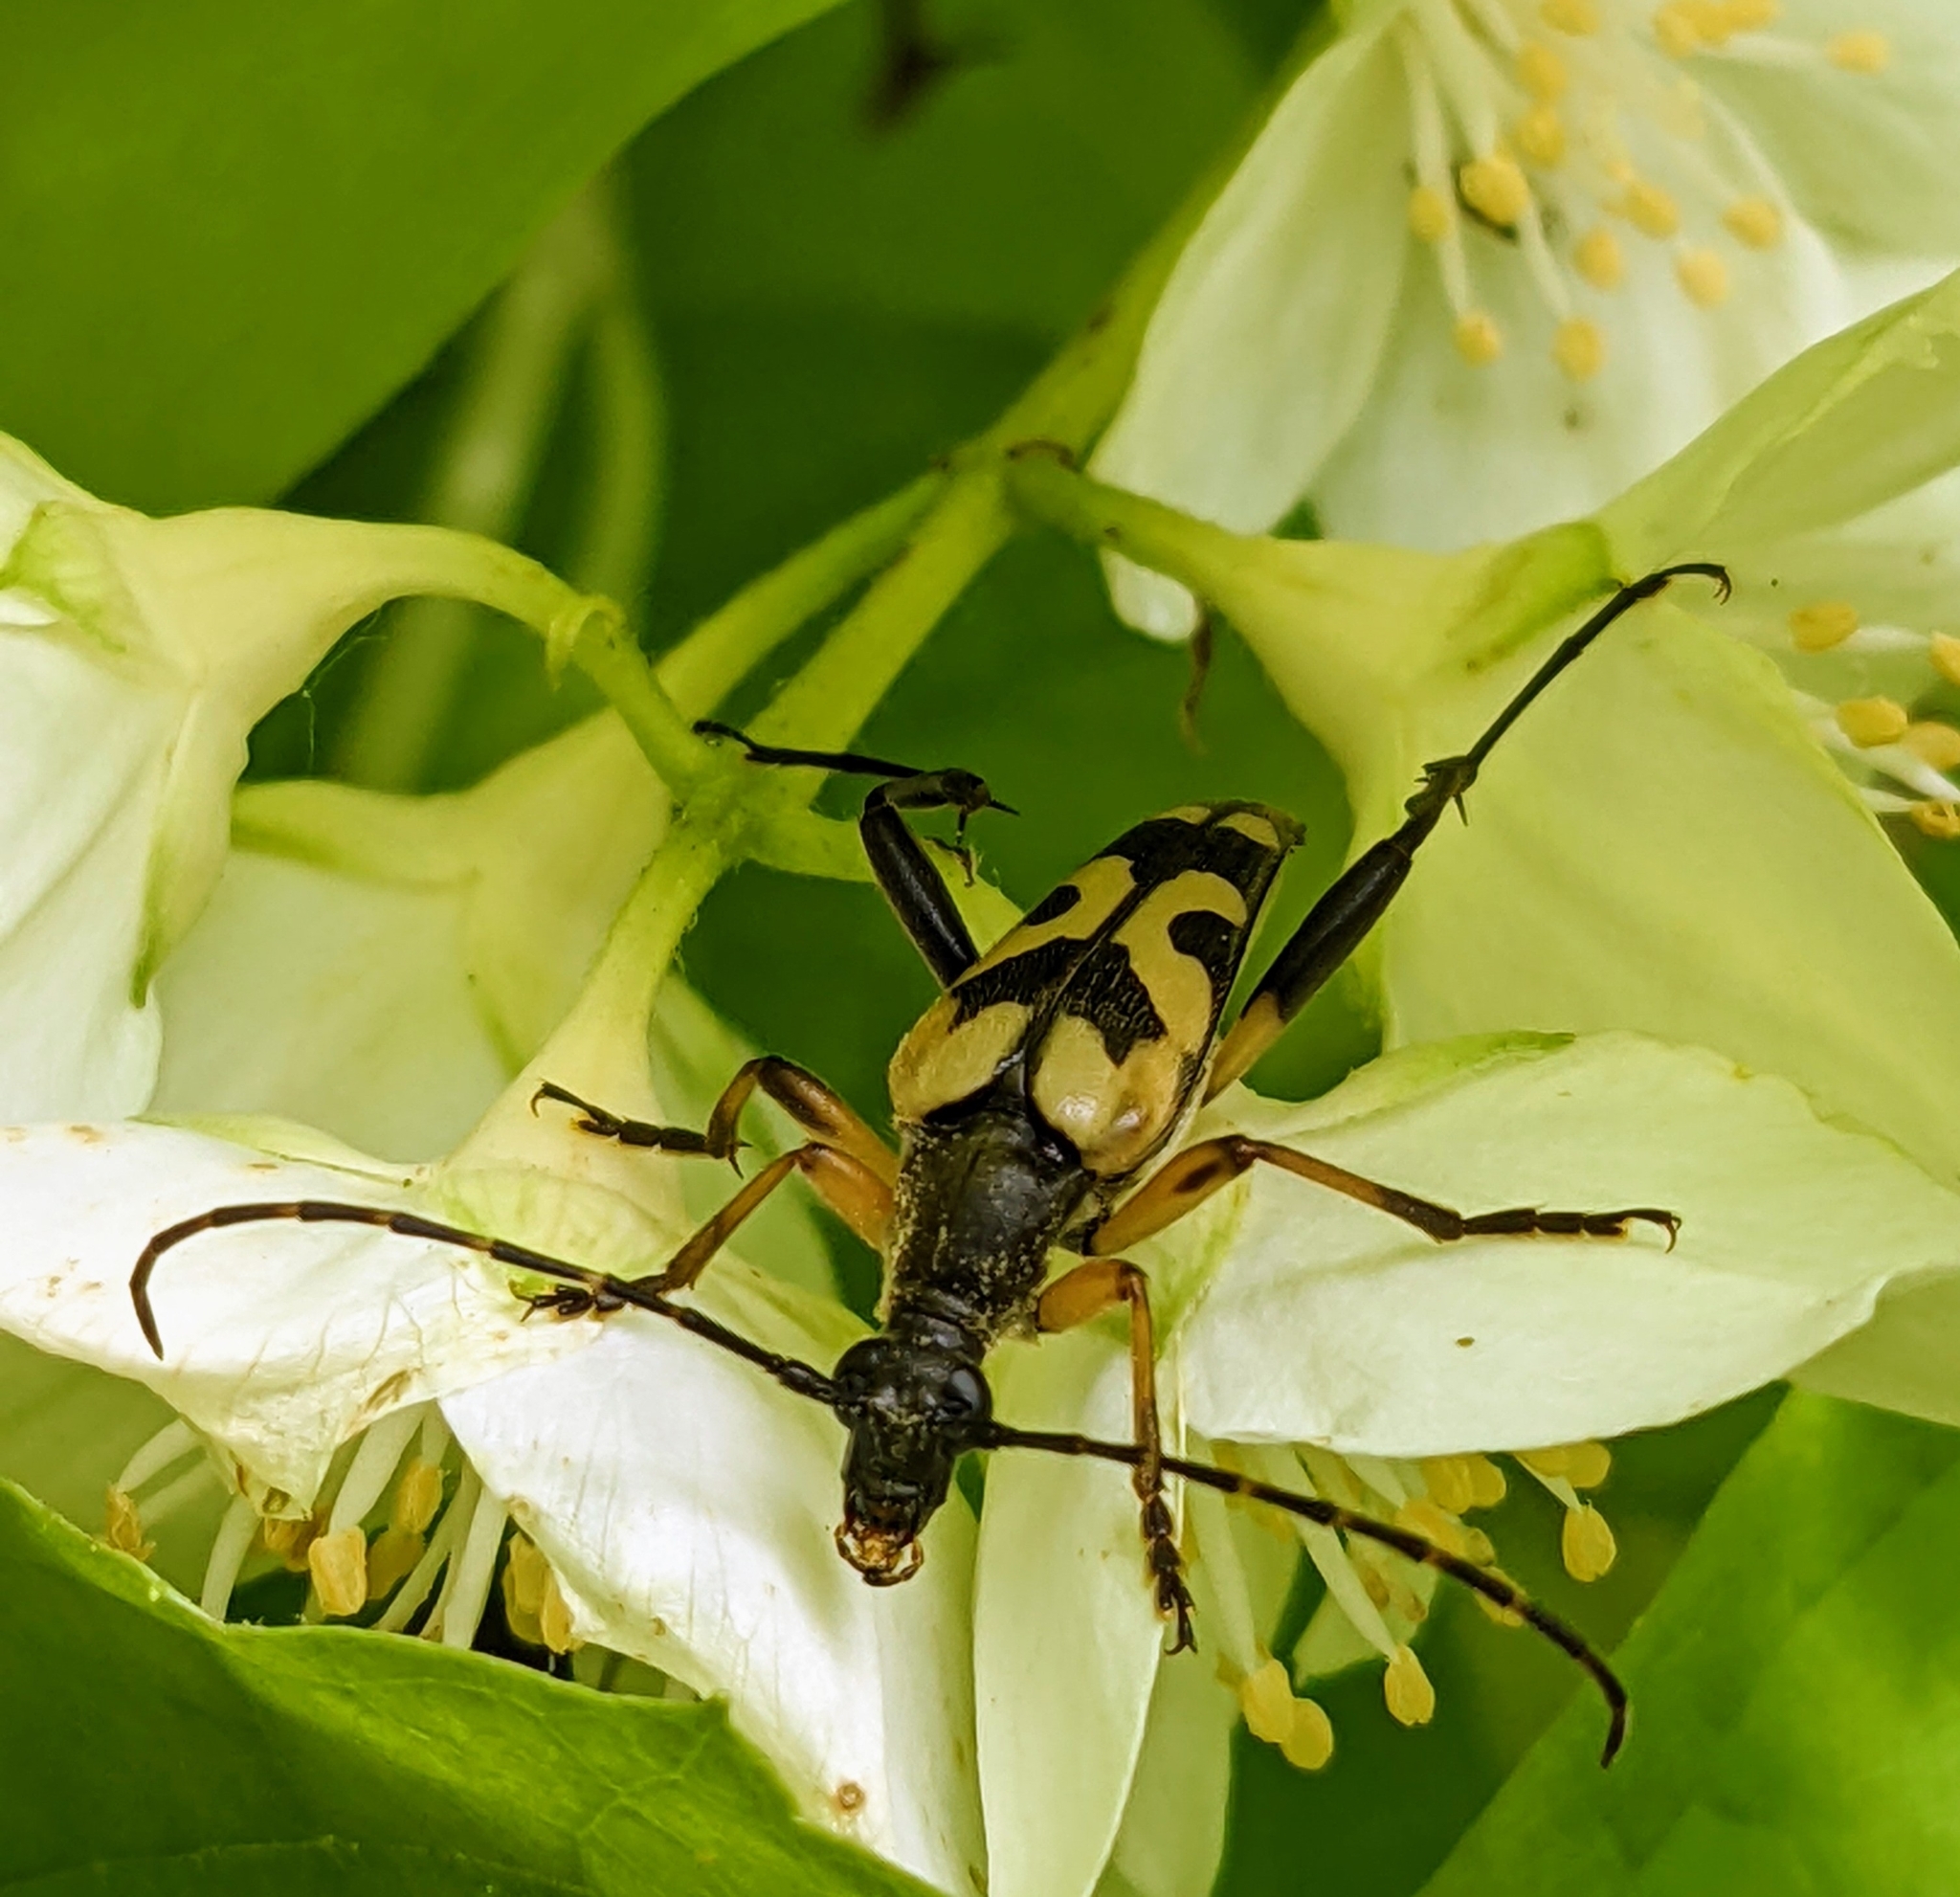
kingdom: Animalia
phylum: Arthropoda
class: Insecta
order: Coleoptera
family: Cerambycidae
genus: Rutpela
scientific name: Rutpela maculata
